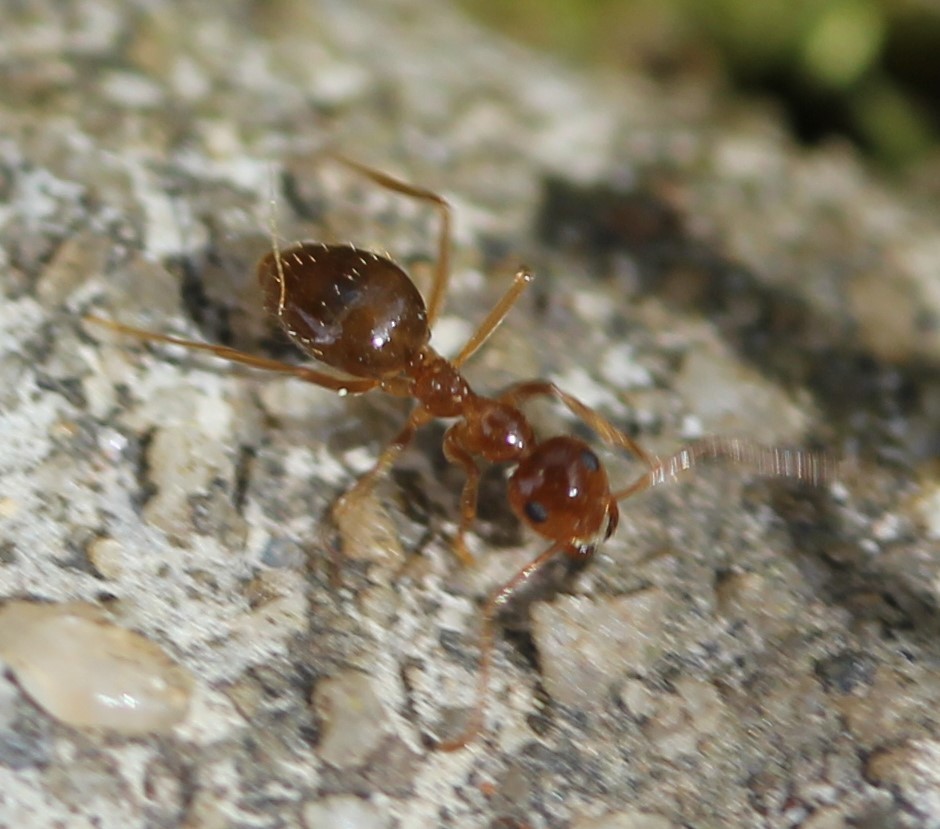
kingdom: Animalia
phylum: Arthropoda
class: Insecta
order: Hymenoptera
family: Formicidae
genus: Prenolepis
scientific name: Prenolepis imparis
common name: Small honey ant
